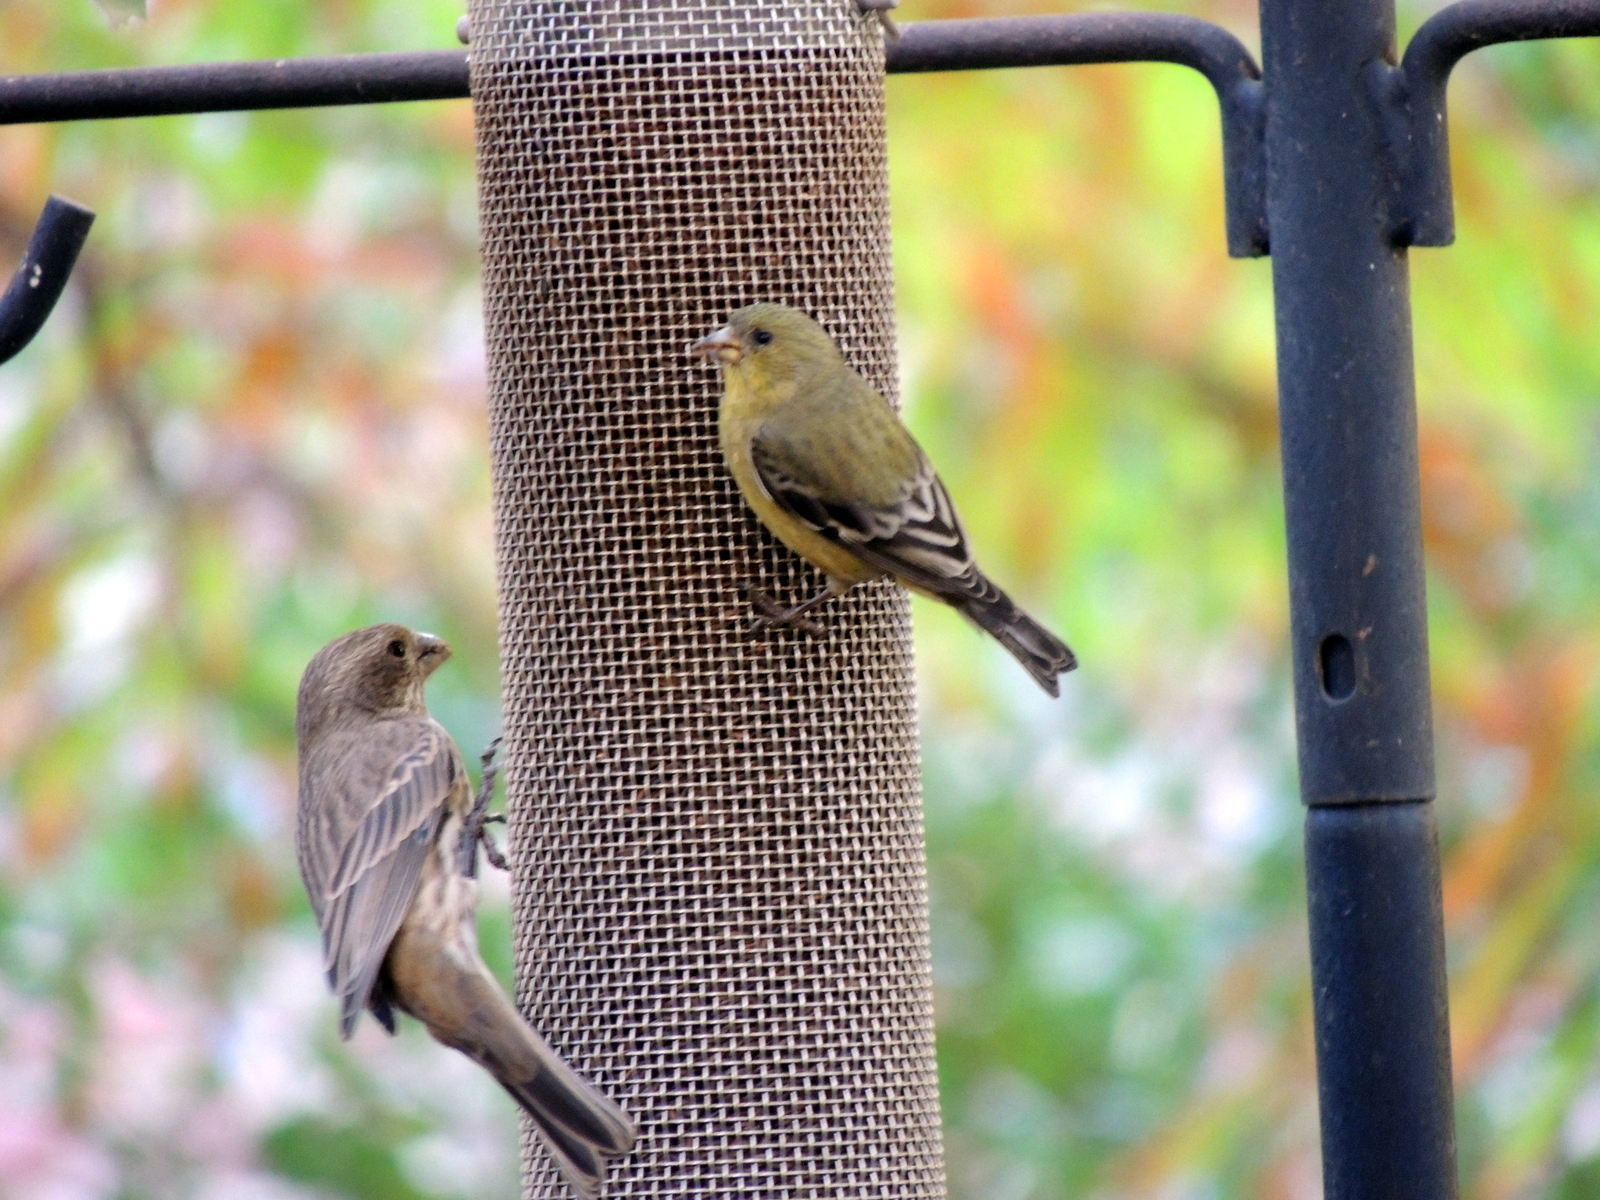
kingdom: Animalia
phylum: Chordata
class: Aves
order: Passeriformes
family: Fringillidae
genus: Haemorhous
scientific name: Haemorhous mexicanus
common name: House finch
